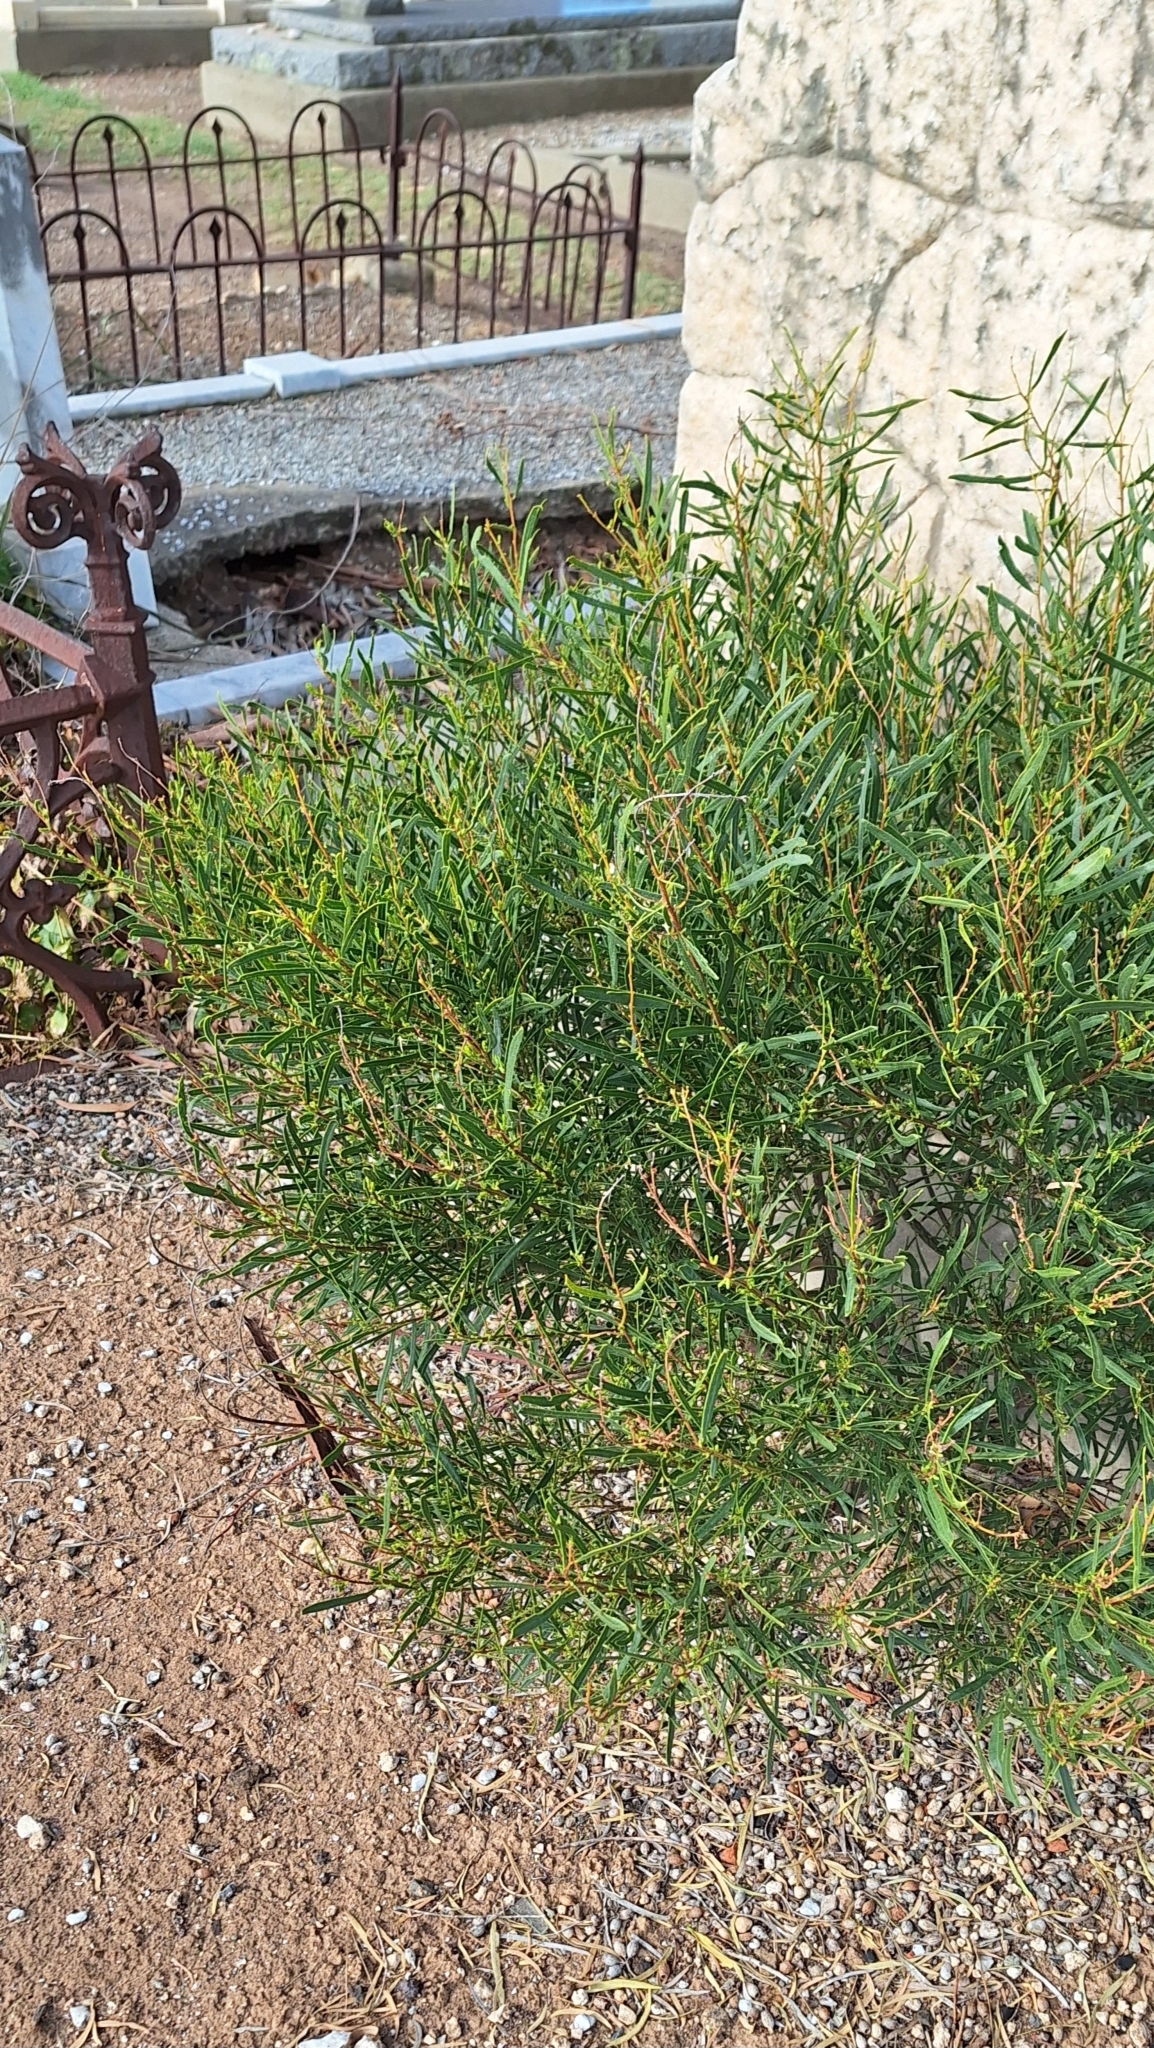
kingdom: Plantae
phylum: Tracheophyta
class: Magnoliopsida
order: Fabales
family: Fabaceae
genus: Acacia
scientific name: Acacia ligulata
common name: Dune wattle
